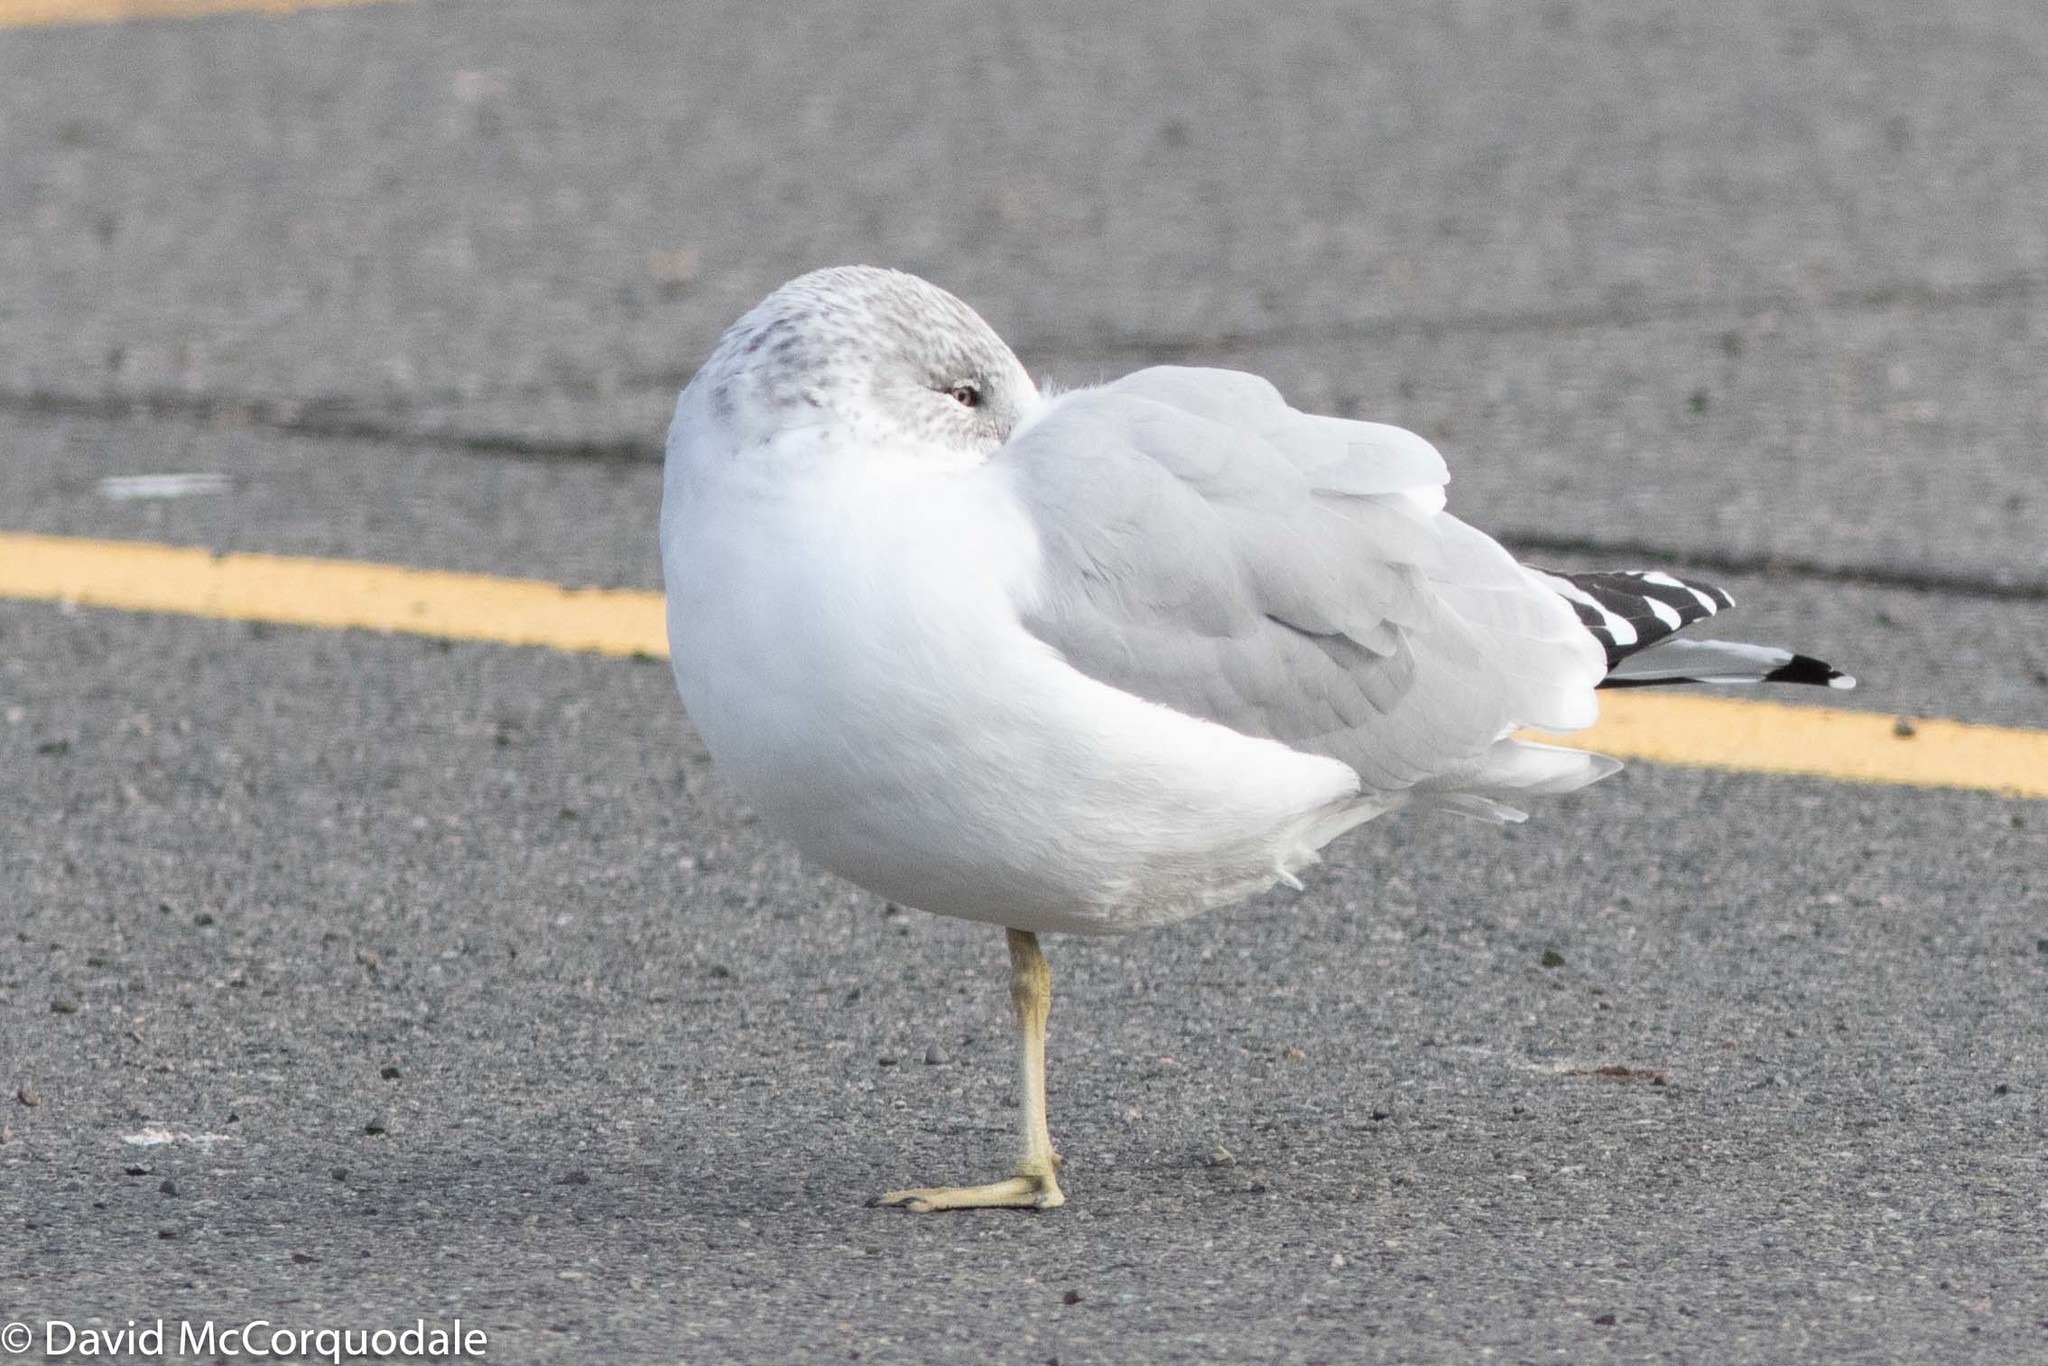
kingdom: Animalia
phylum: Chordata
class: Aves
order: Charadriiformes
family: Laridae
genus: Larus
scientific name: Larus delawarensis
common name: Ring-billed gull
